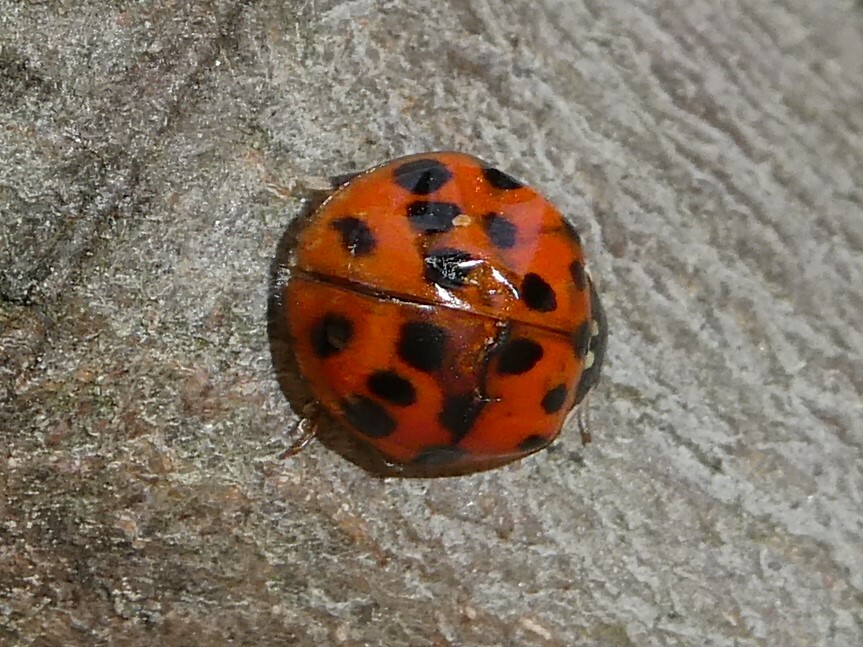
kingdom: Animalia
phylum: Arthropoda
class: Insecta
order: Coleoptera
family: Coccinellidae
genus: Harmonia
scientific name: Harmonia axyridis
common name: Harlequin ladybird
